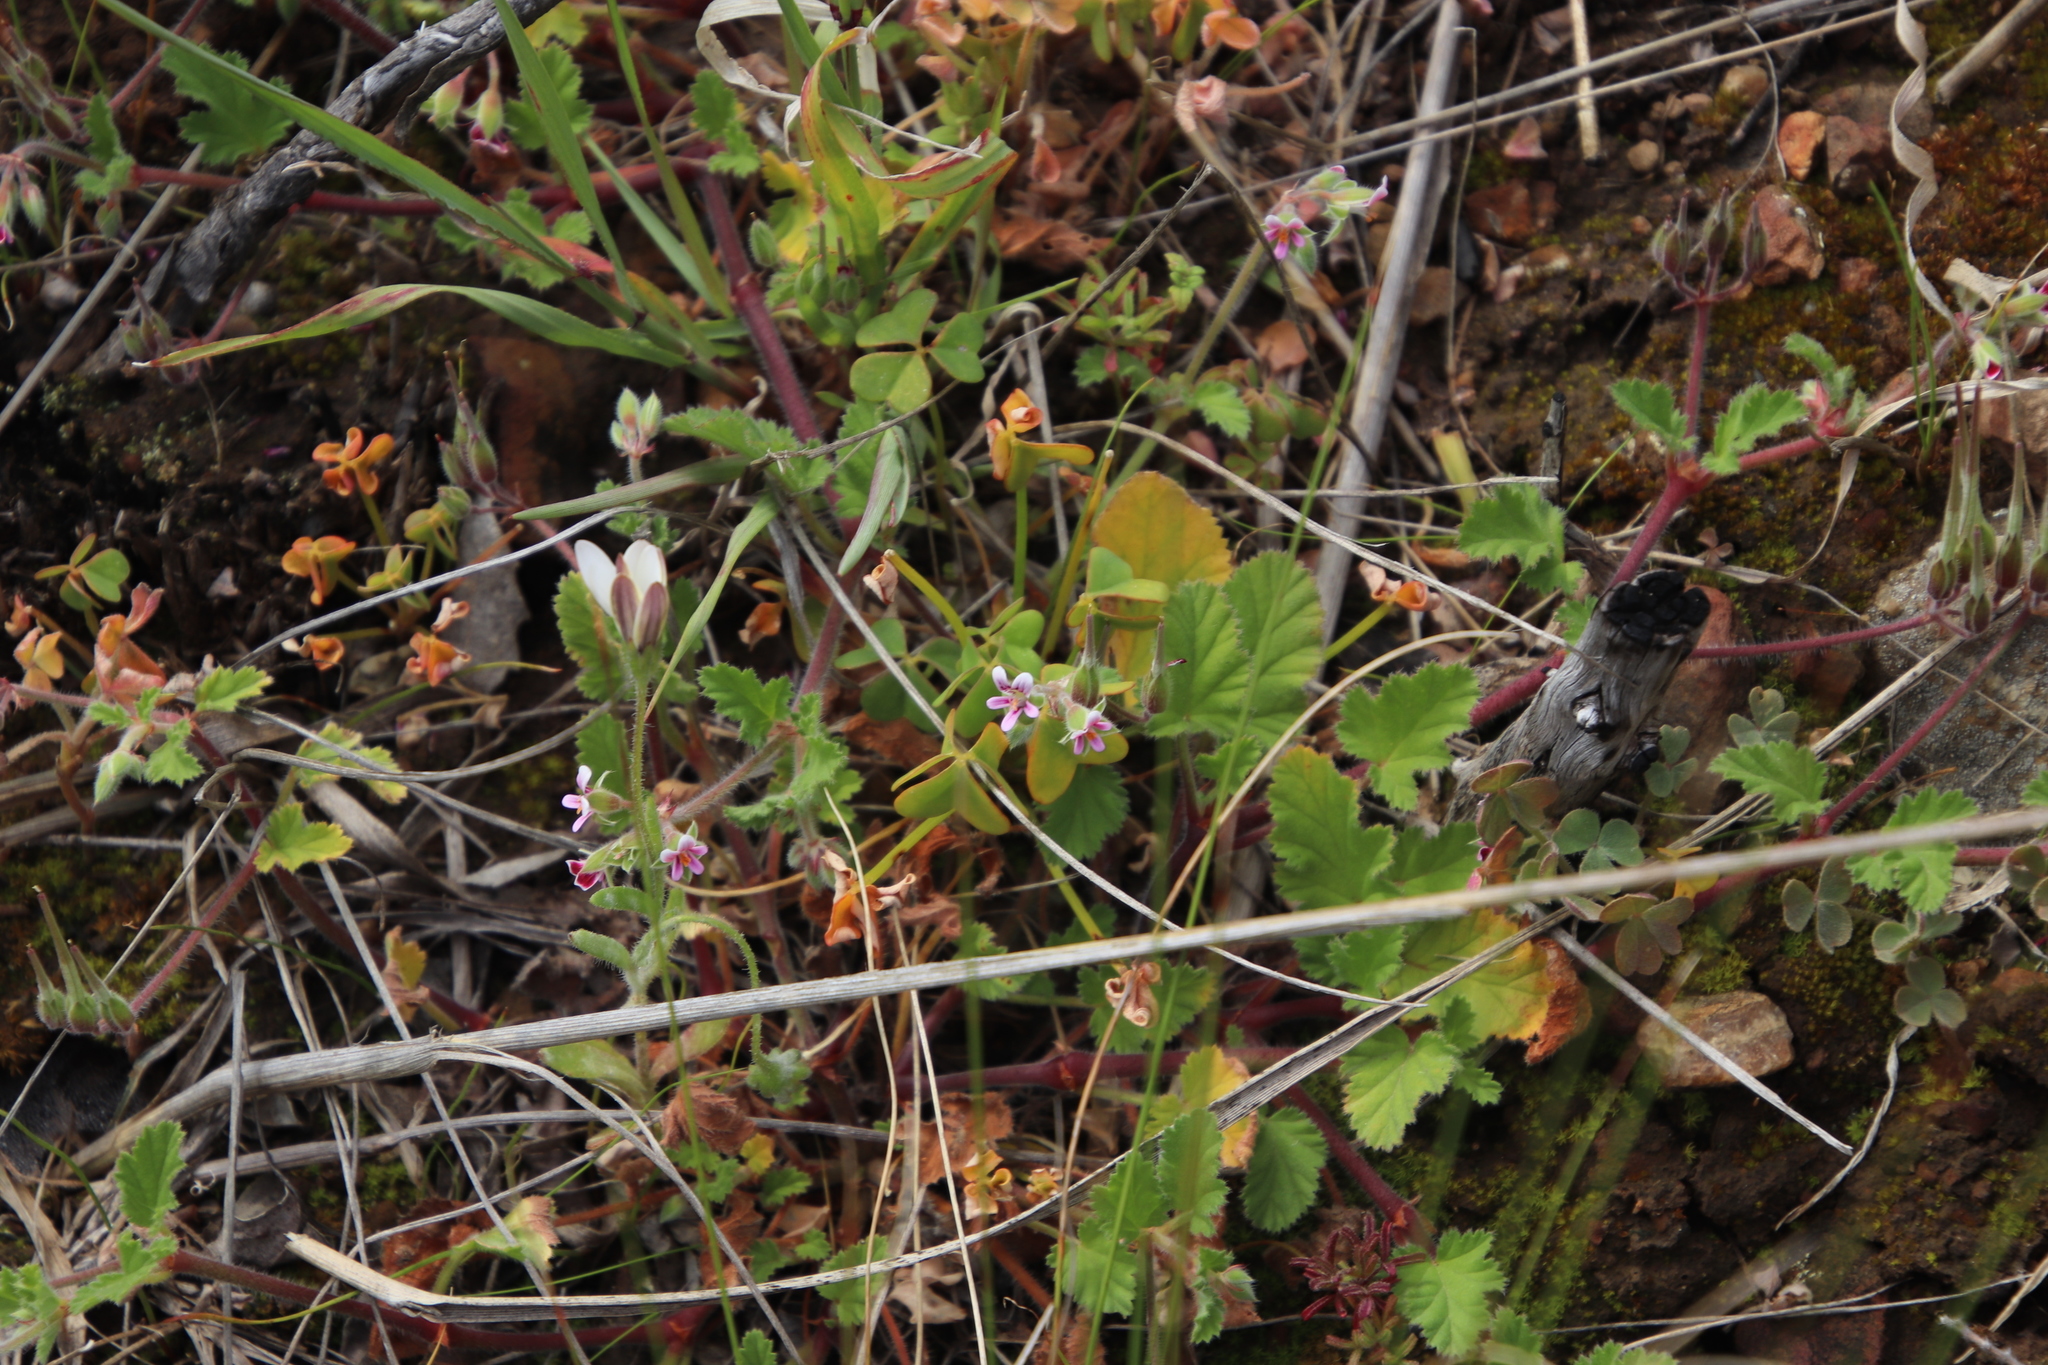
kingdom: Plantae
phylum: Tracheophyta
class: Magnoliopsida
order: Geraniales
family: Geraniaceae
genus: Pelargonium
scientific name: Pelargonium althaeoides
